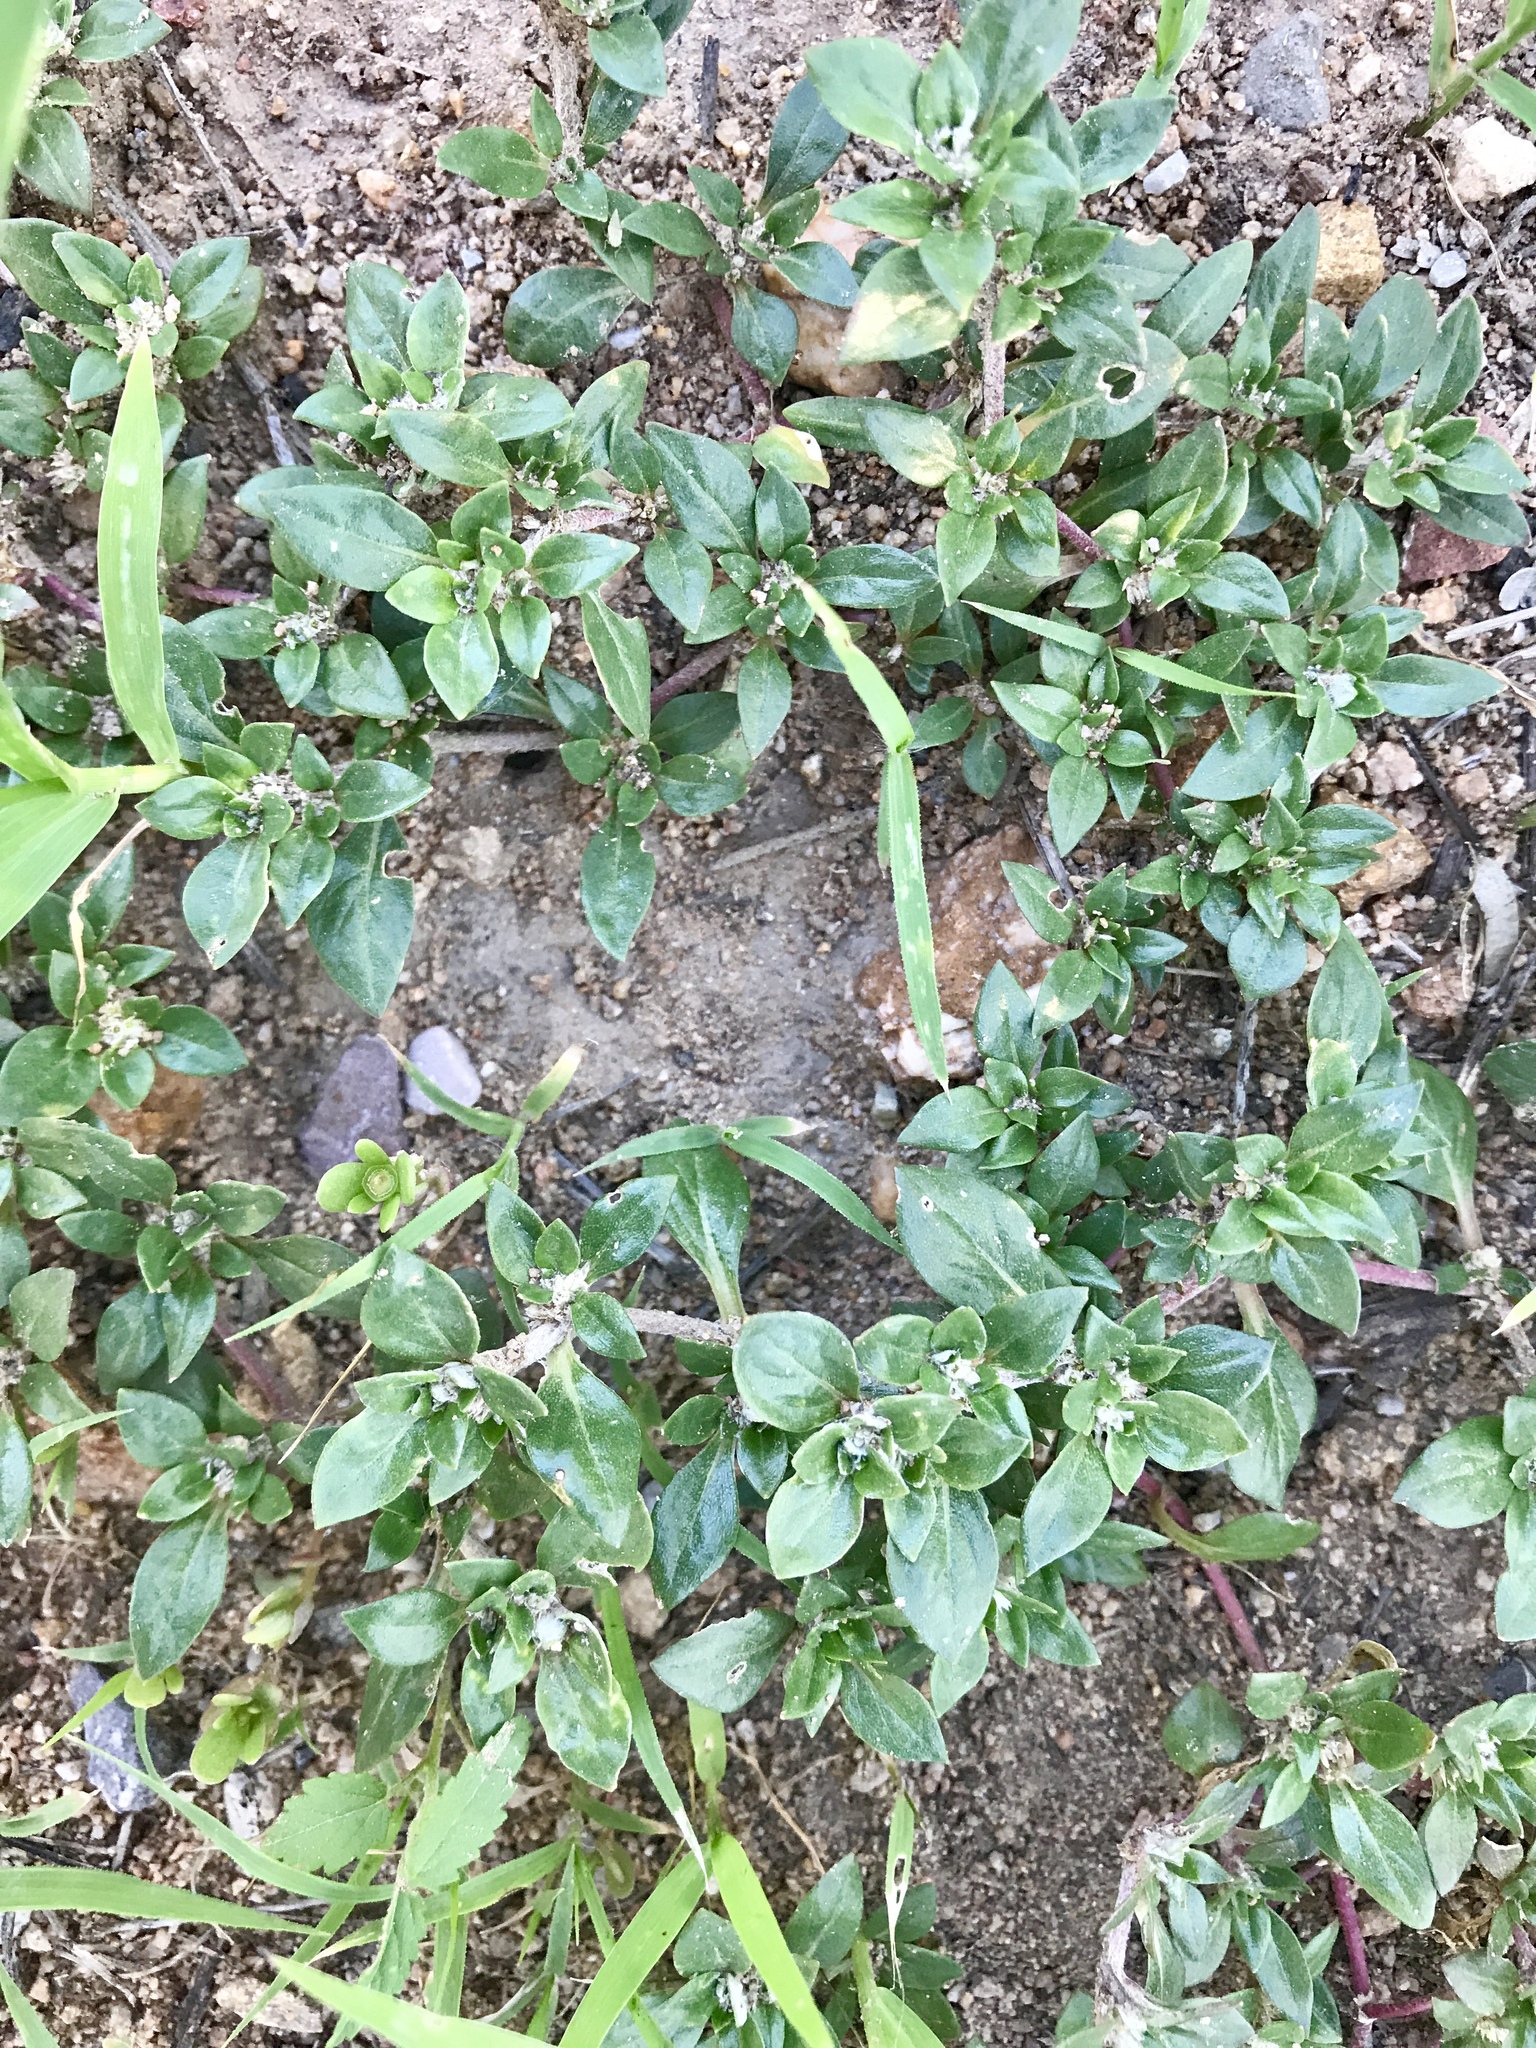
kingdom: Plantae
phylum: Tracheophyta
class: Magnoliopsida
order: Caryophyllales
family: Amaranthaceae
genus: Guilleminea
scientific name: Guilleminea densa
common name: Small matweed
